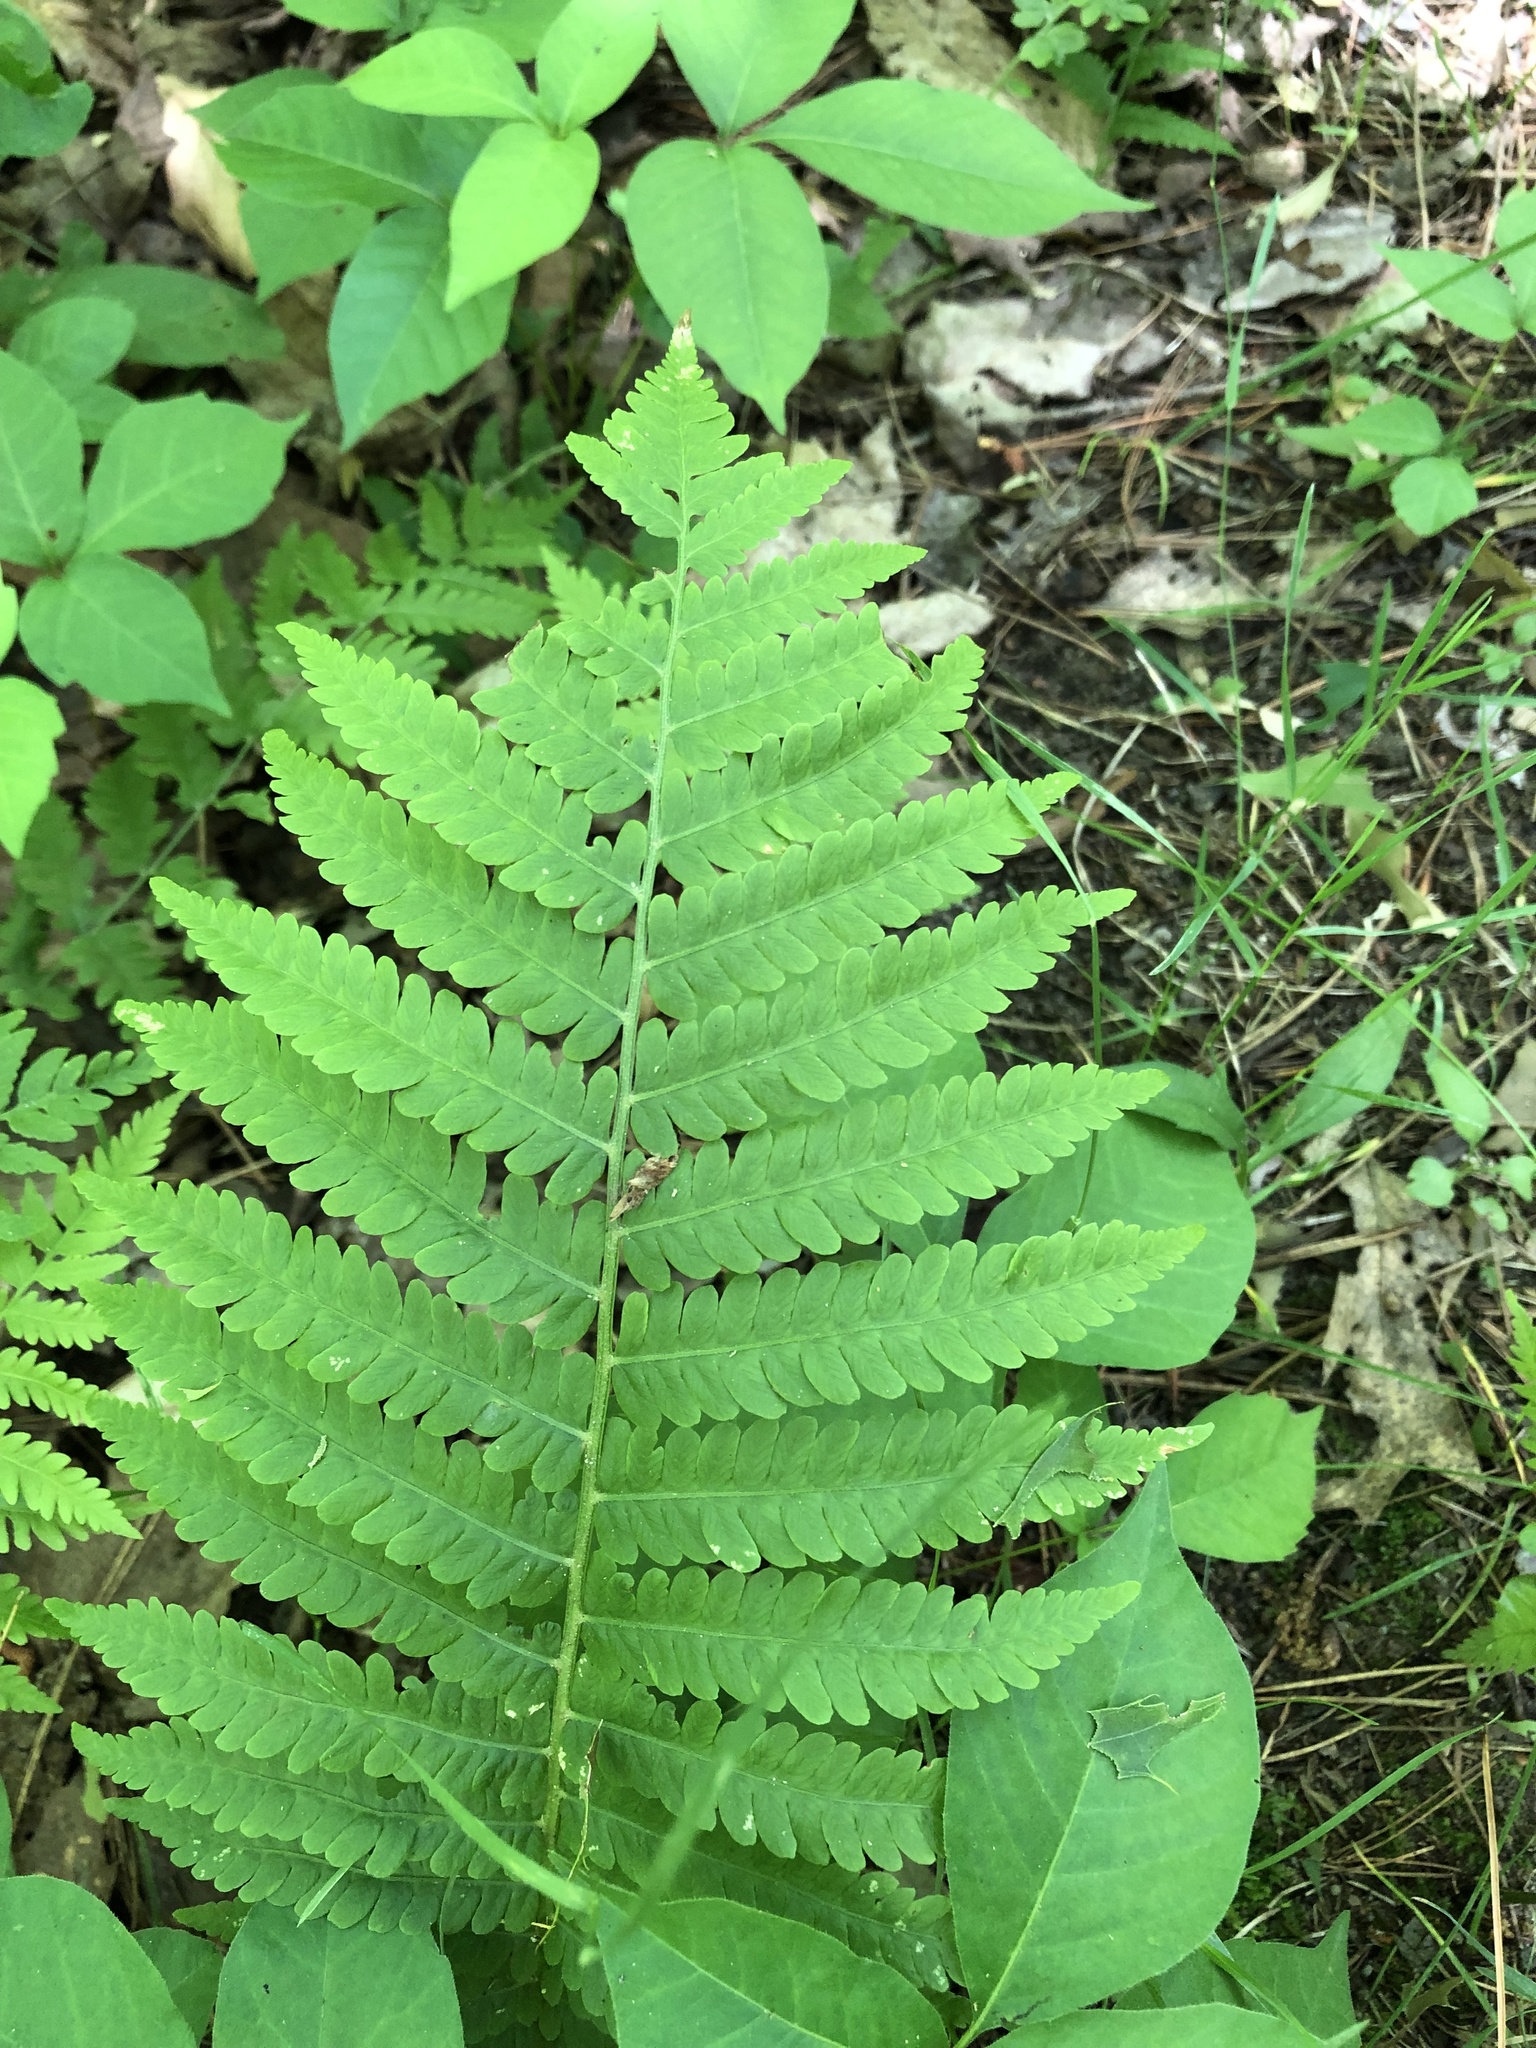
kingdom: Plantae
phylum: Tracheophyta
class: Polypodiopsida
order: Polypodiales
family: Onocleaceae
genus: Matteuccia
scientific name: Matteuccia struthiopteris
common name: Ostrich fern
